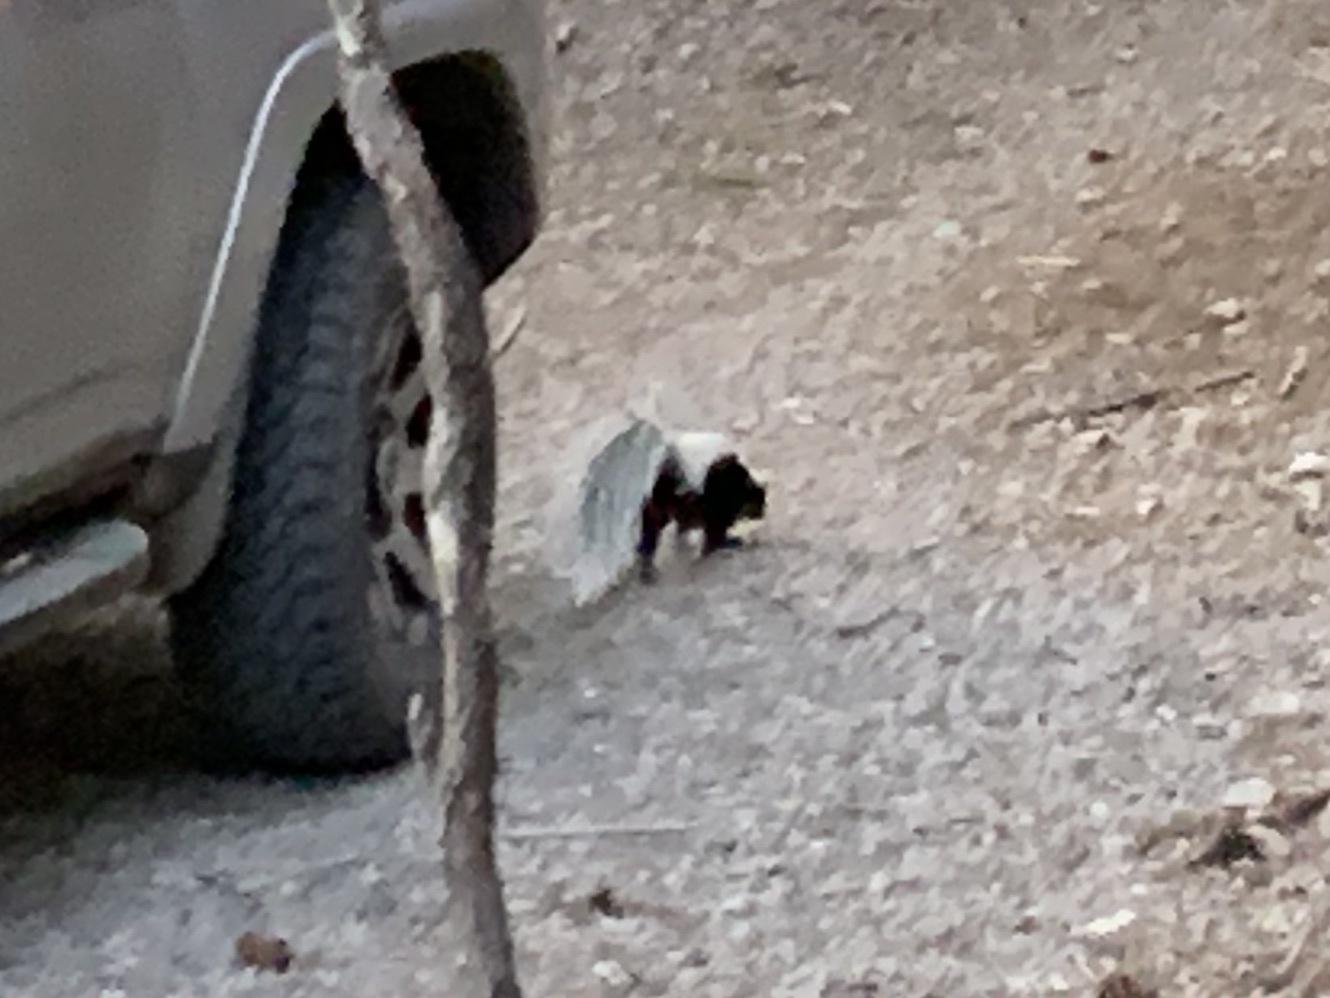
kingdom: Animalia
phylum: Chordata
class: Mammalia
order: Carnivora
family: Mephitidae
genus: Mephitis
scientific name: Mephitis mephitis
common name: Striped skunk
